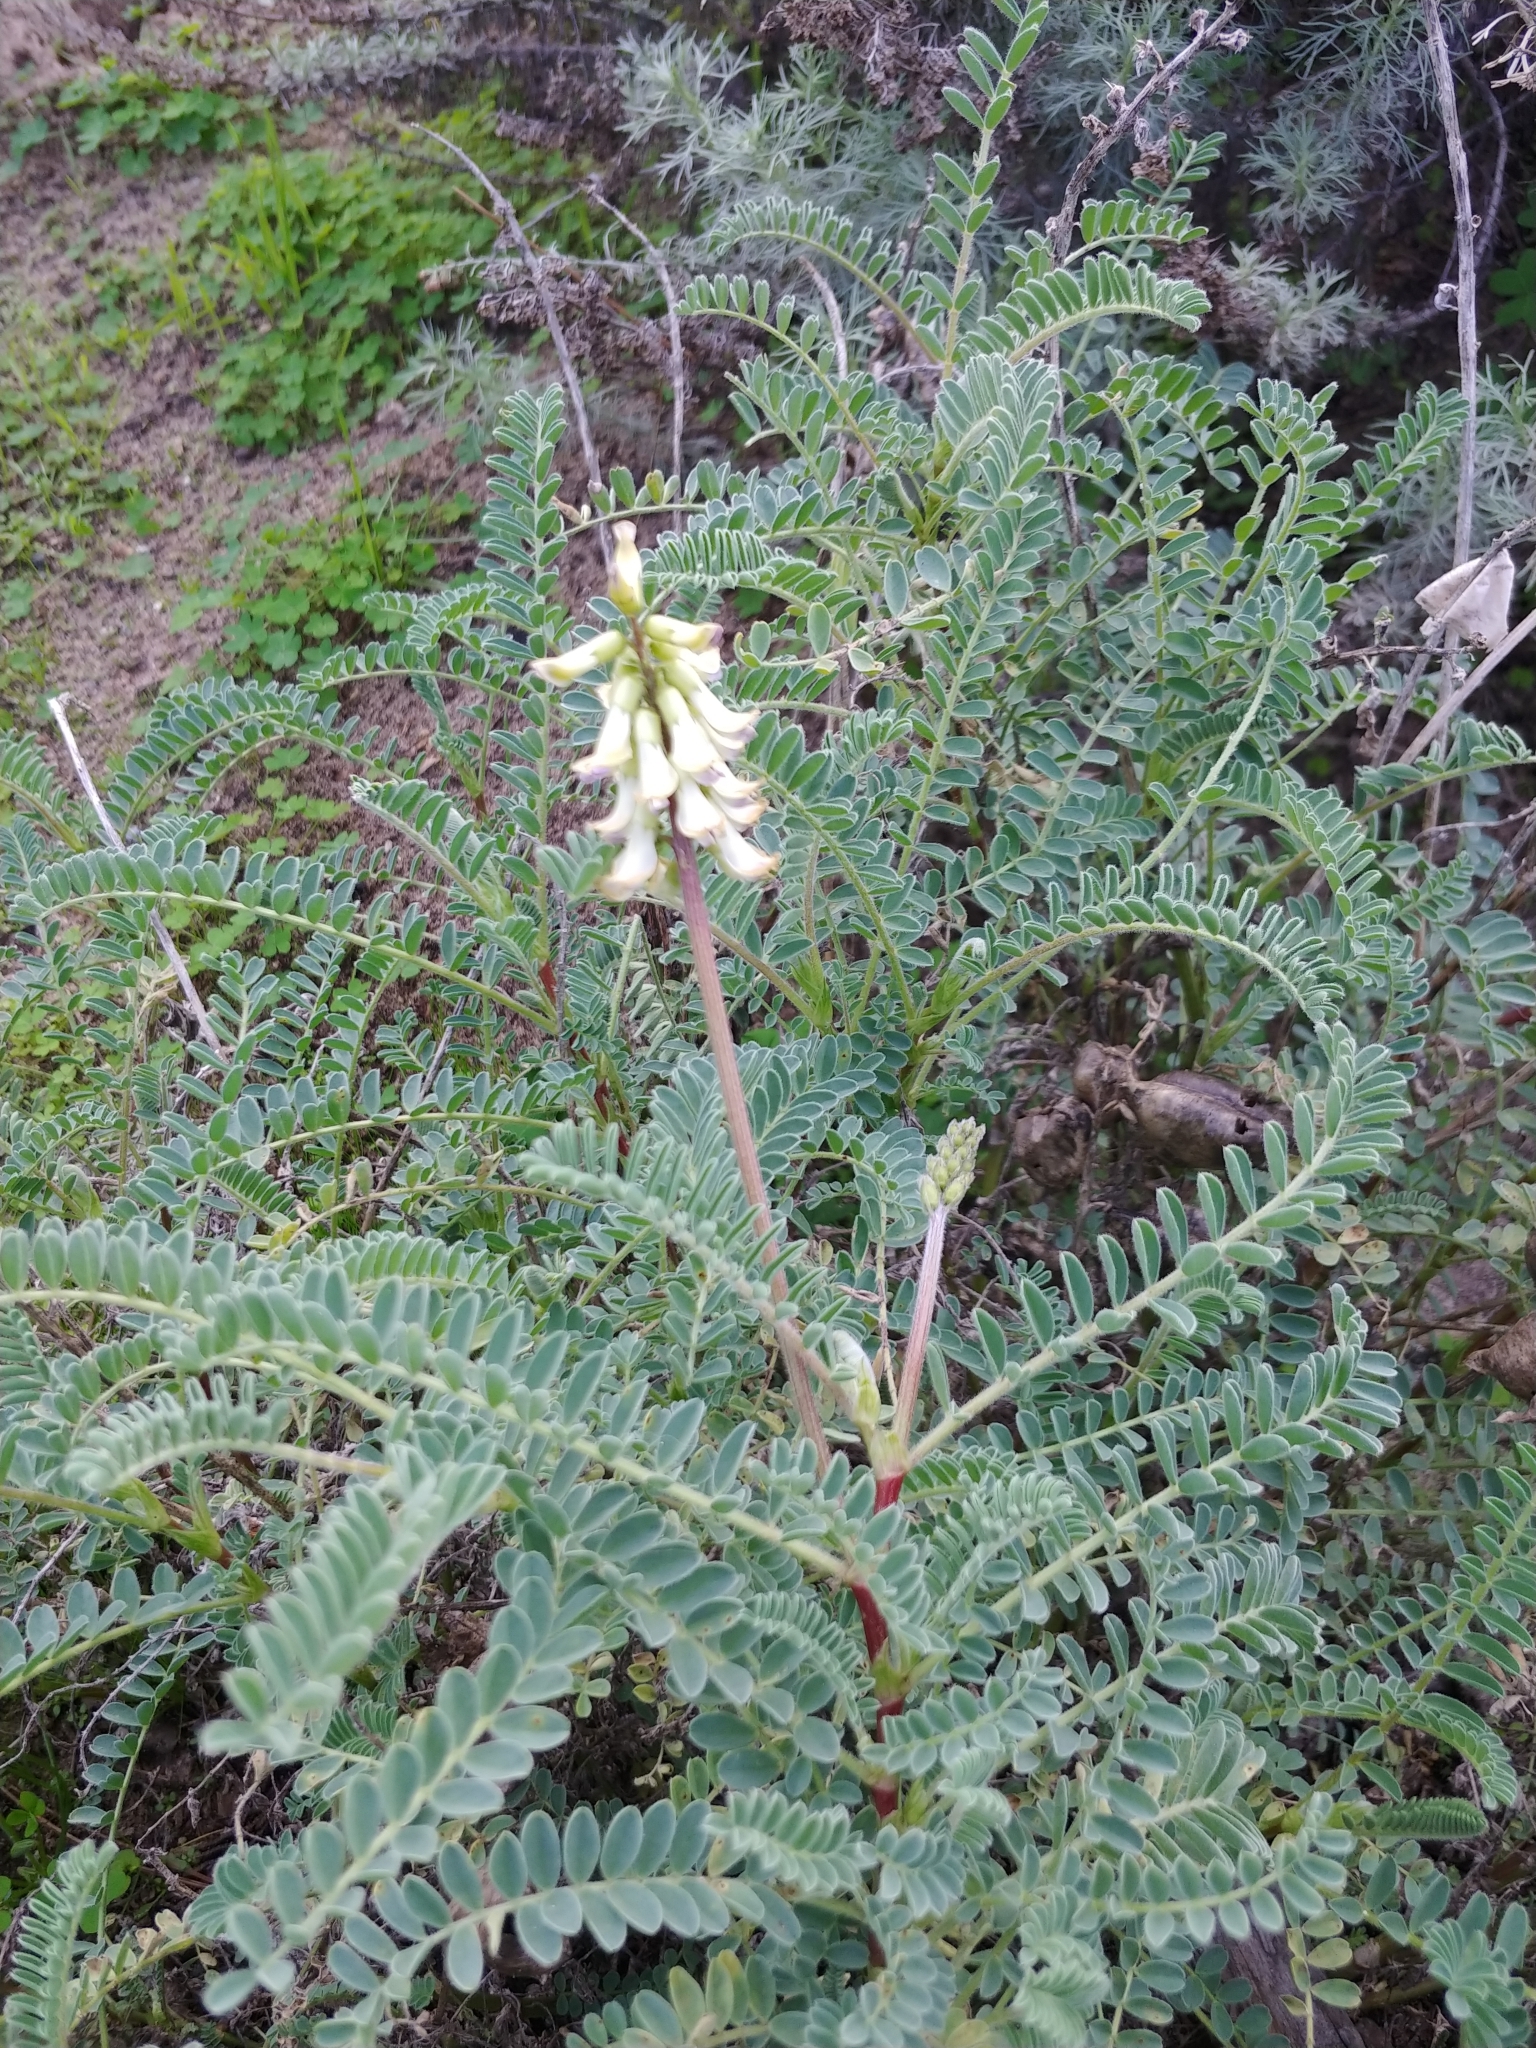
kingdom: Plantae
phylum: Tracheophyta
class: Magnoliopsida
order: Fabales
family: Fabaceae
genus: Astragalus
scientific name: Astragalus nuttallii
